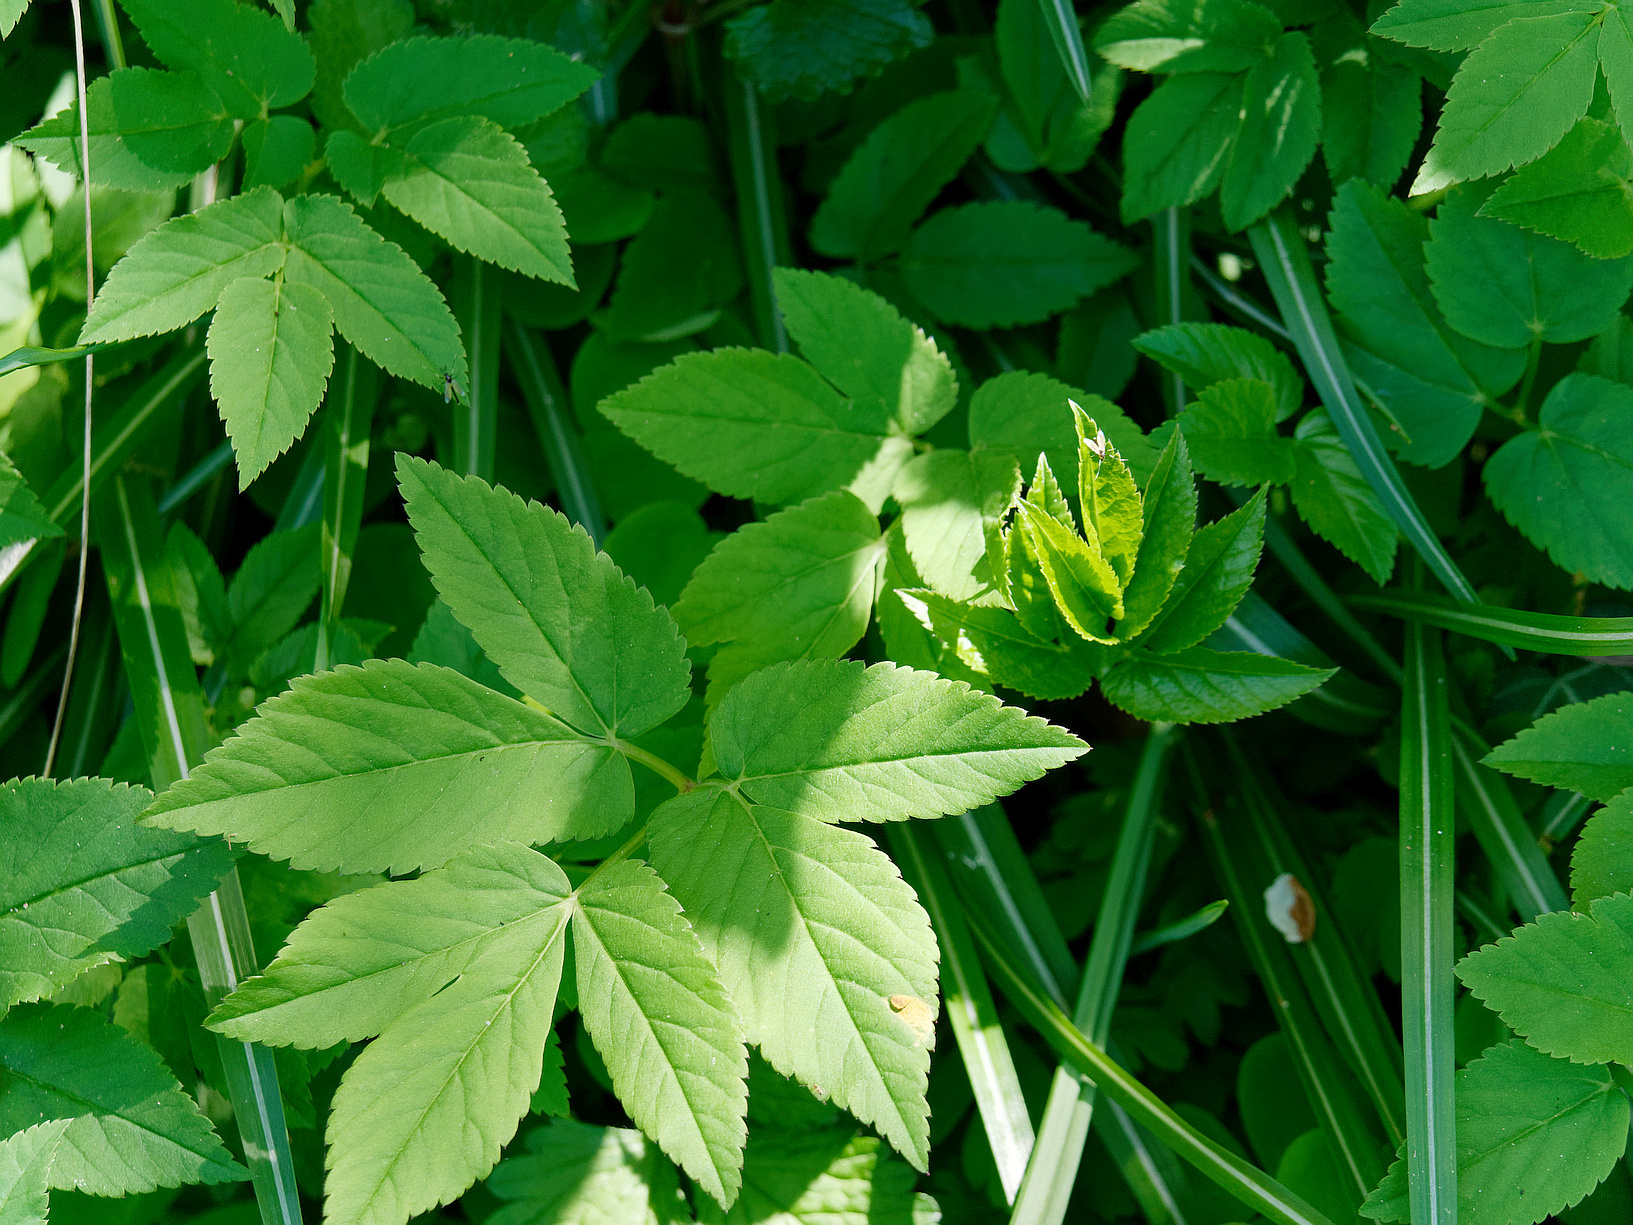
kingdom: Plantae
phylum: Tracheophyta
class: Magnoliopsida
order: Apiales
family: Apiaceae
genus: Aegopodium
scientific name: Aegopodium podagraria
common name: Ground-elder
